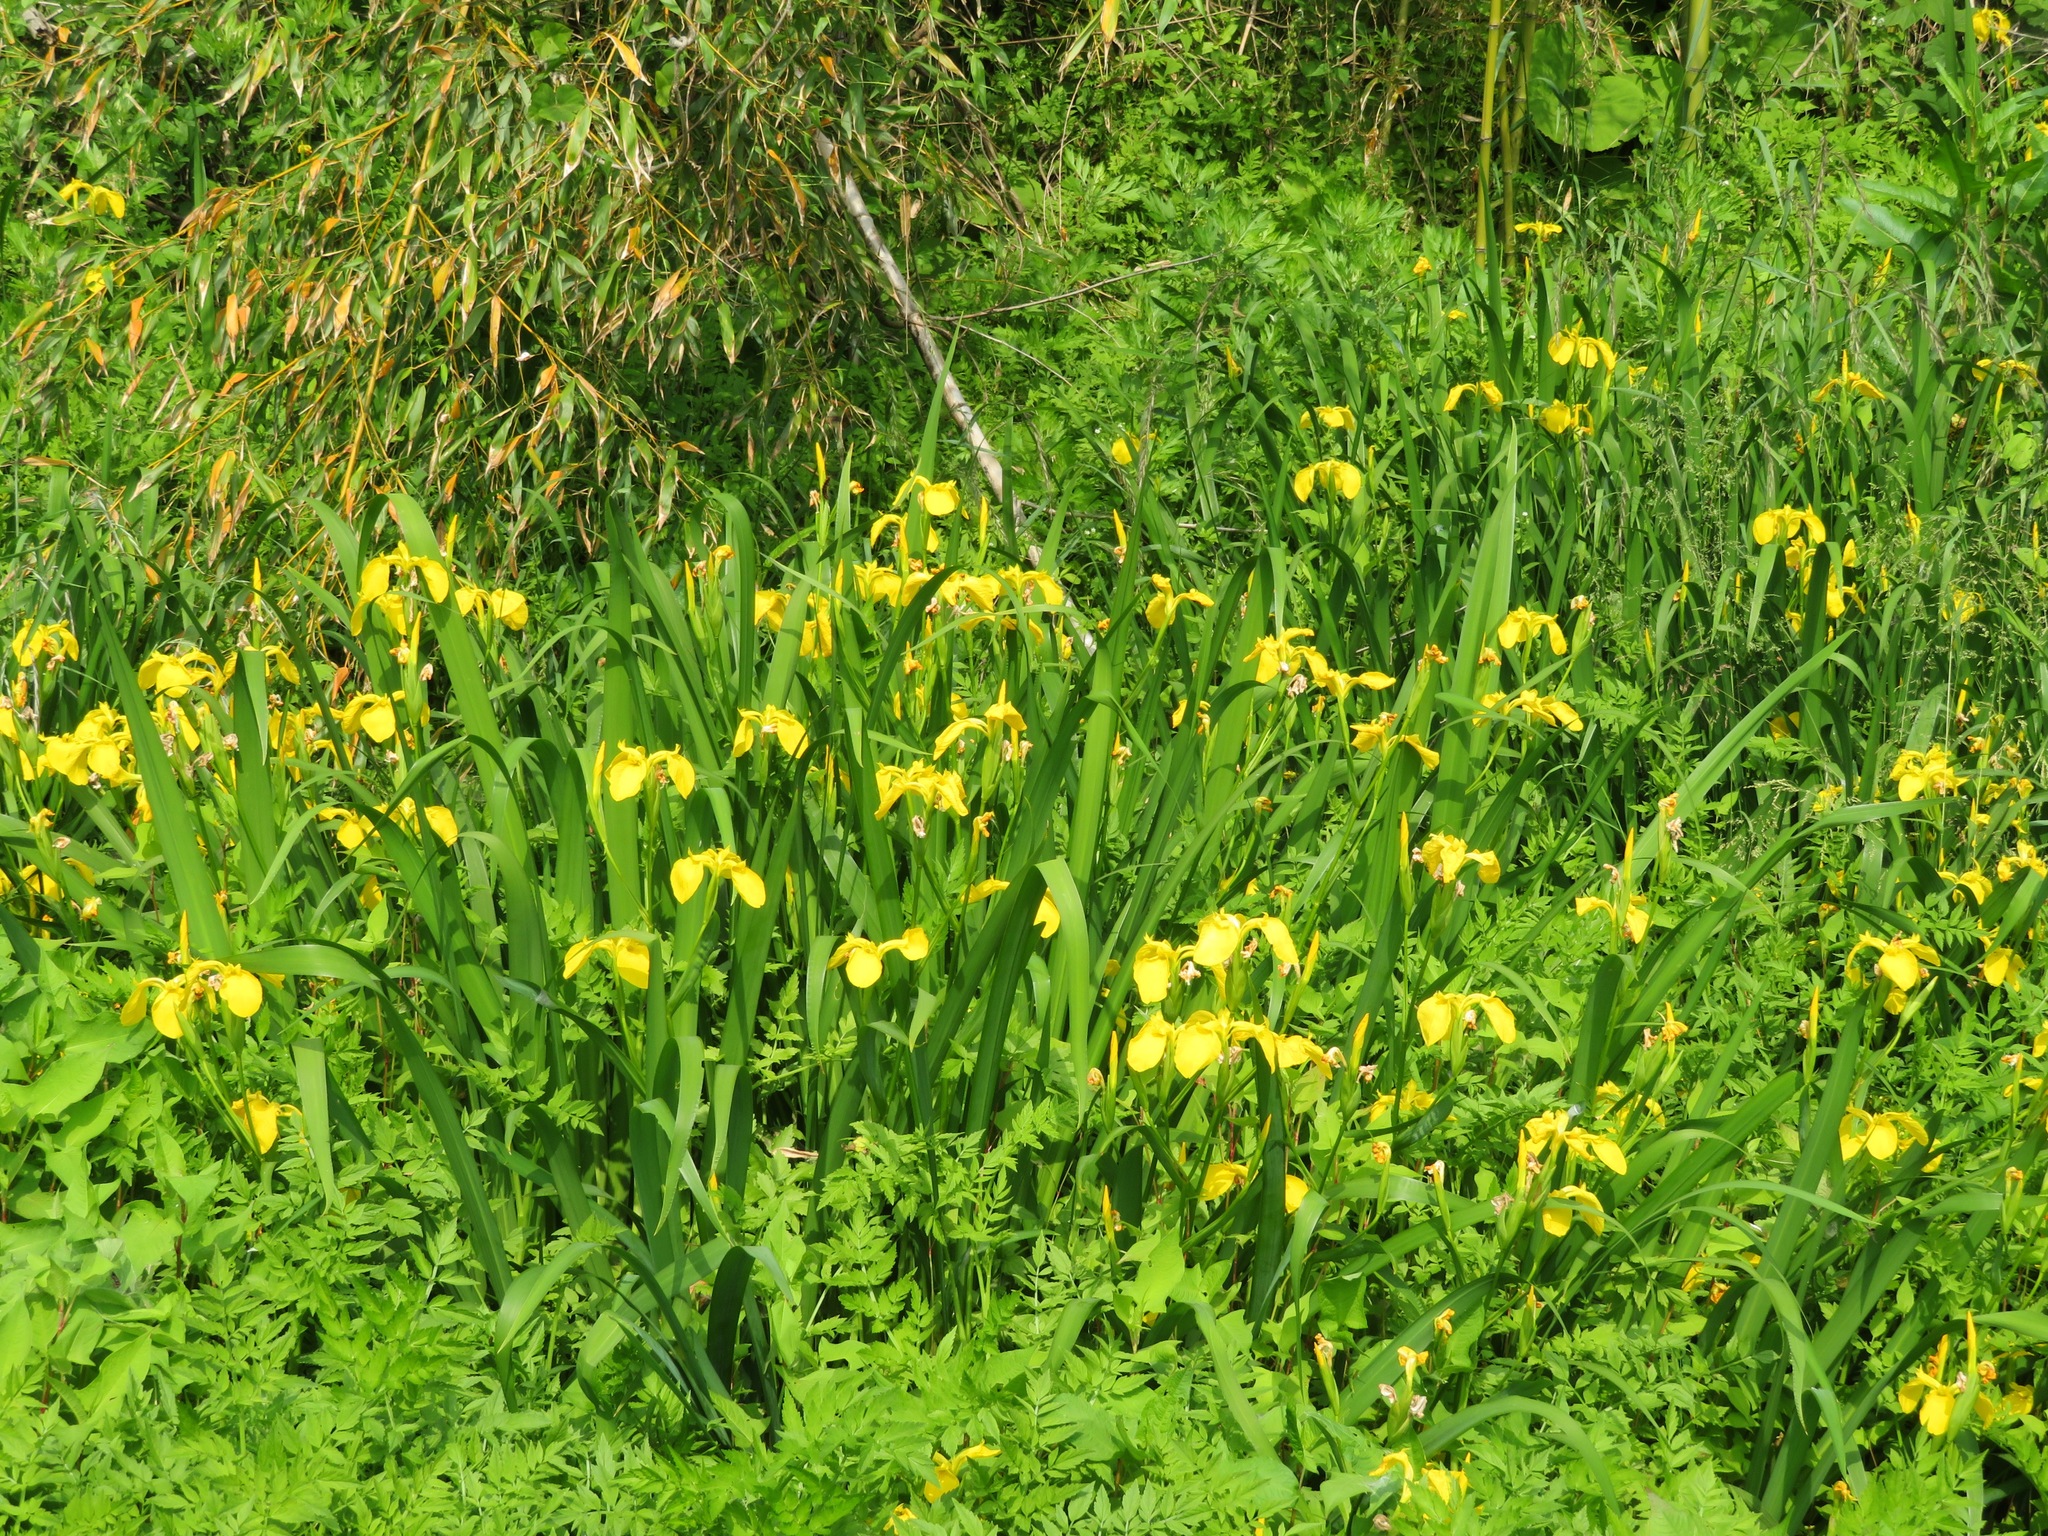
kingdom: Plantae
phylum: Tracheophyta
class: Liliopsida
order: Asparagales
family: Iridaceae
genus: Iris
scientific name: Iris pseudacorus
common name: Yellow flag
